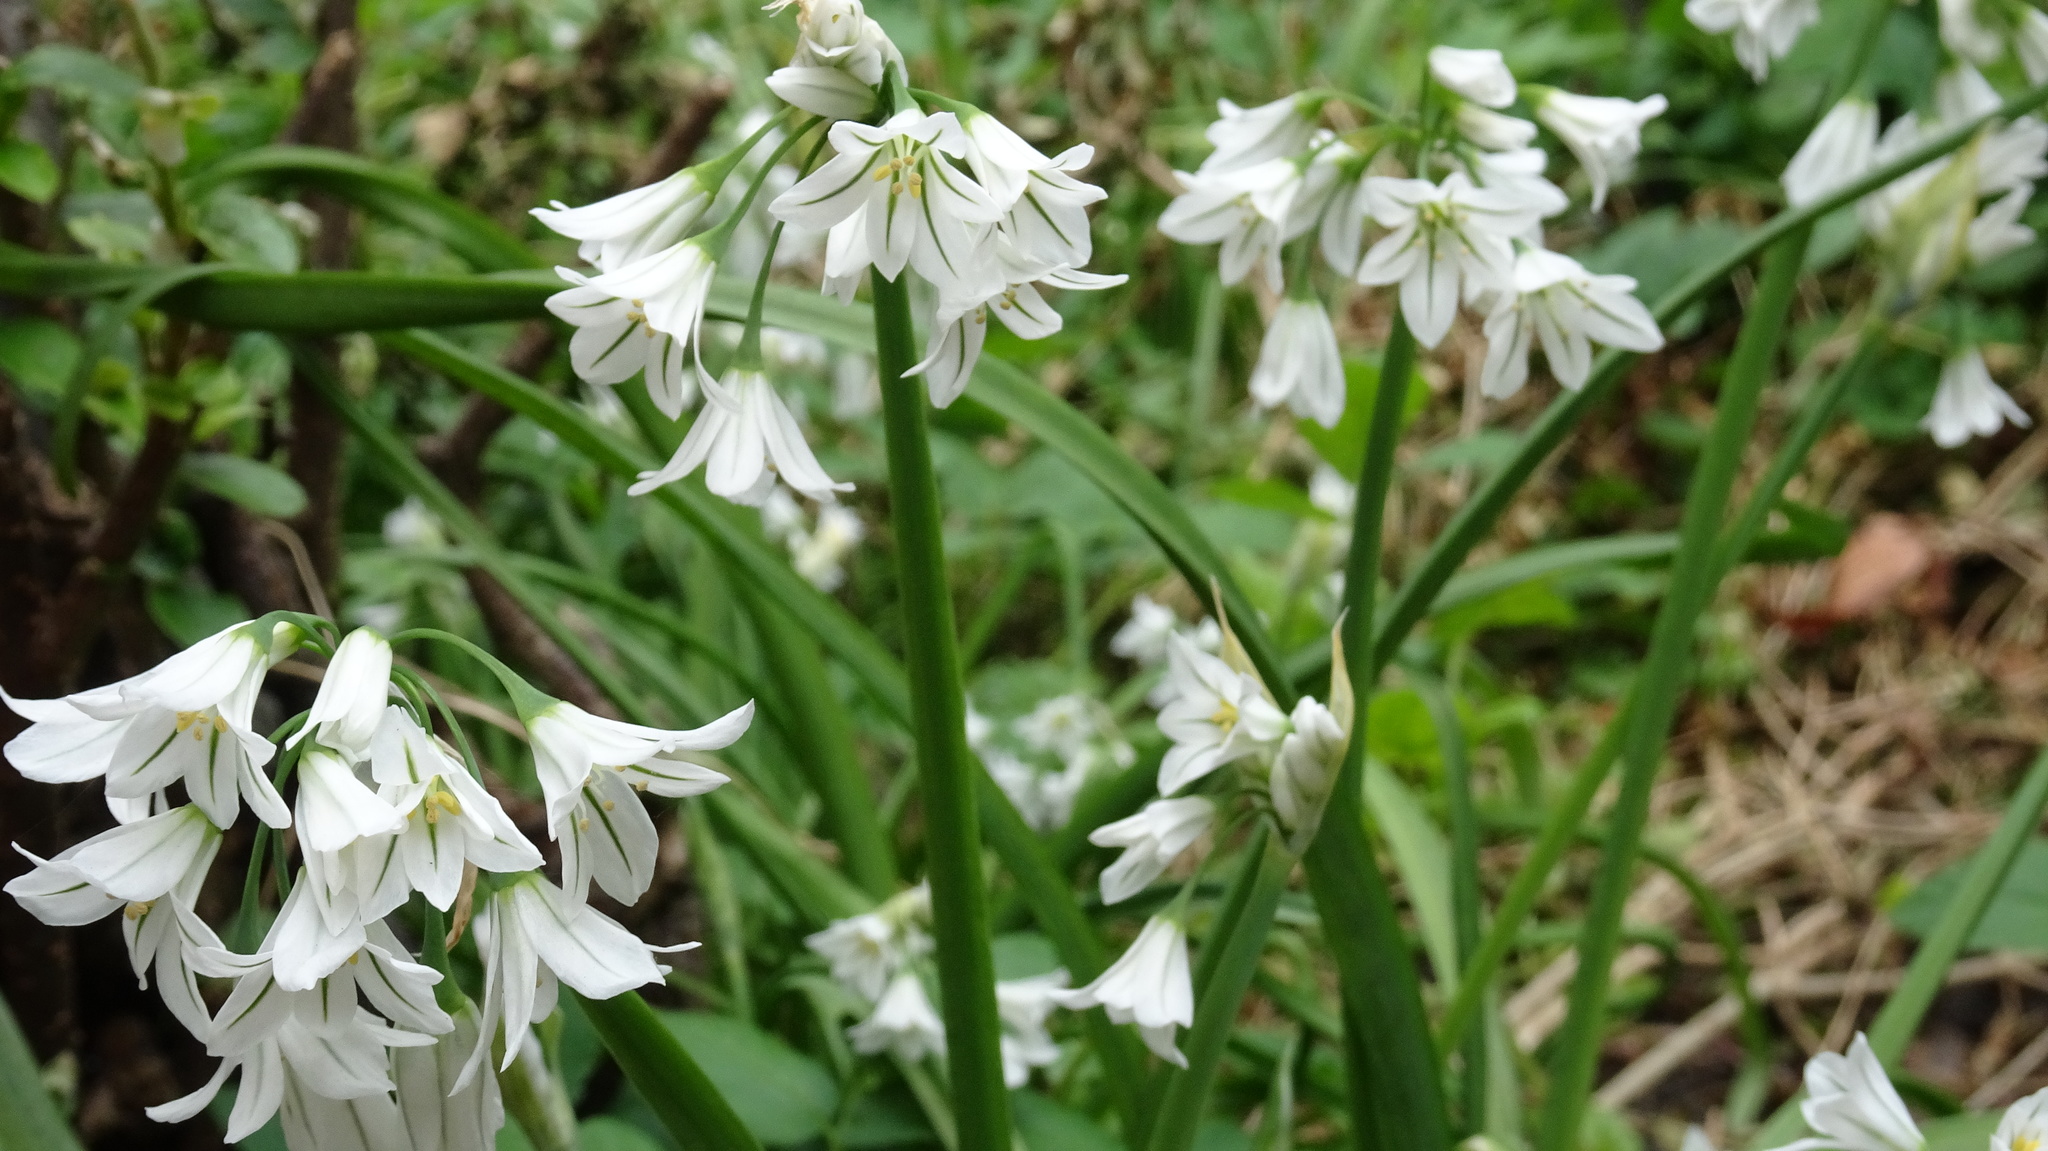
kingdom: Plantae
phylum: Tracheophyta
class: Liliopsida
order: Asparagales
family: Amaryllidaceae
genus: Allium
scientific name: Allium triquetrum
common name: Three-cornered garlic
